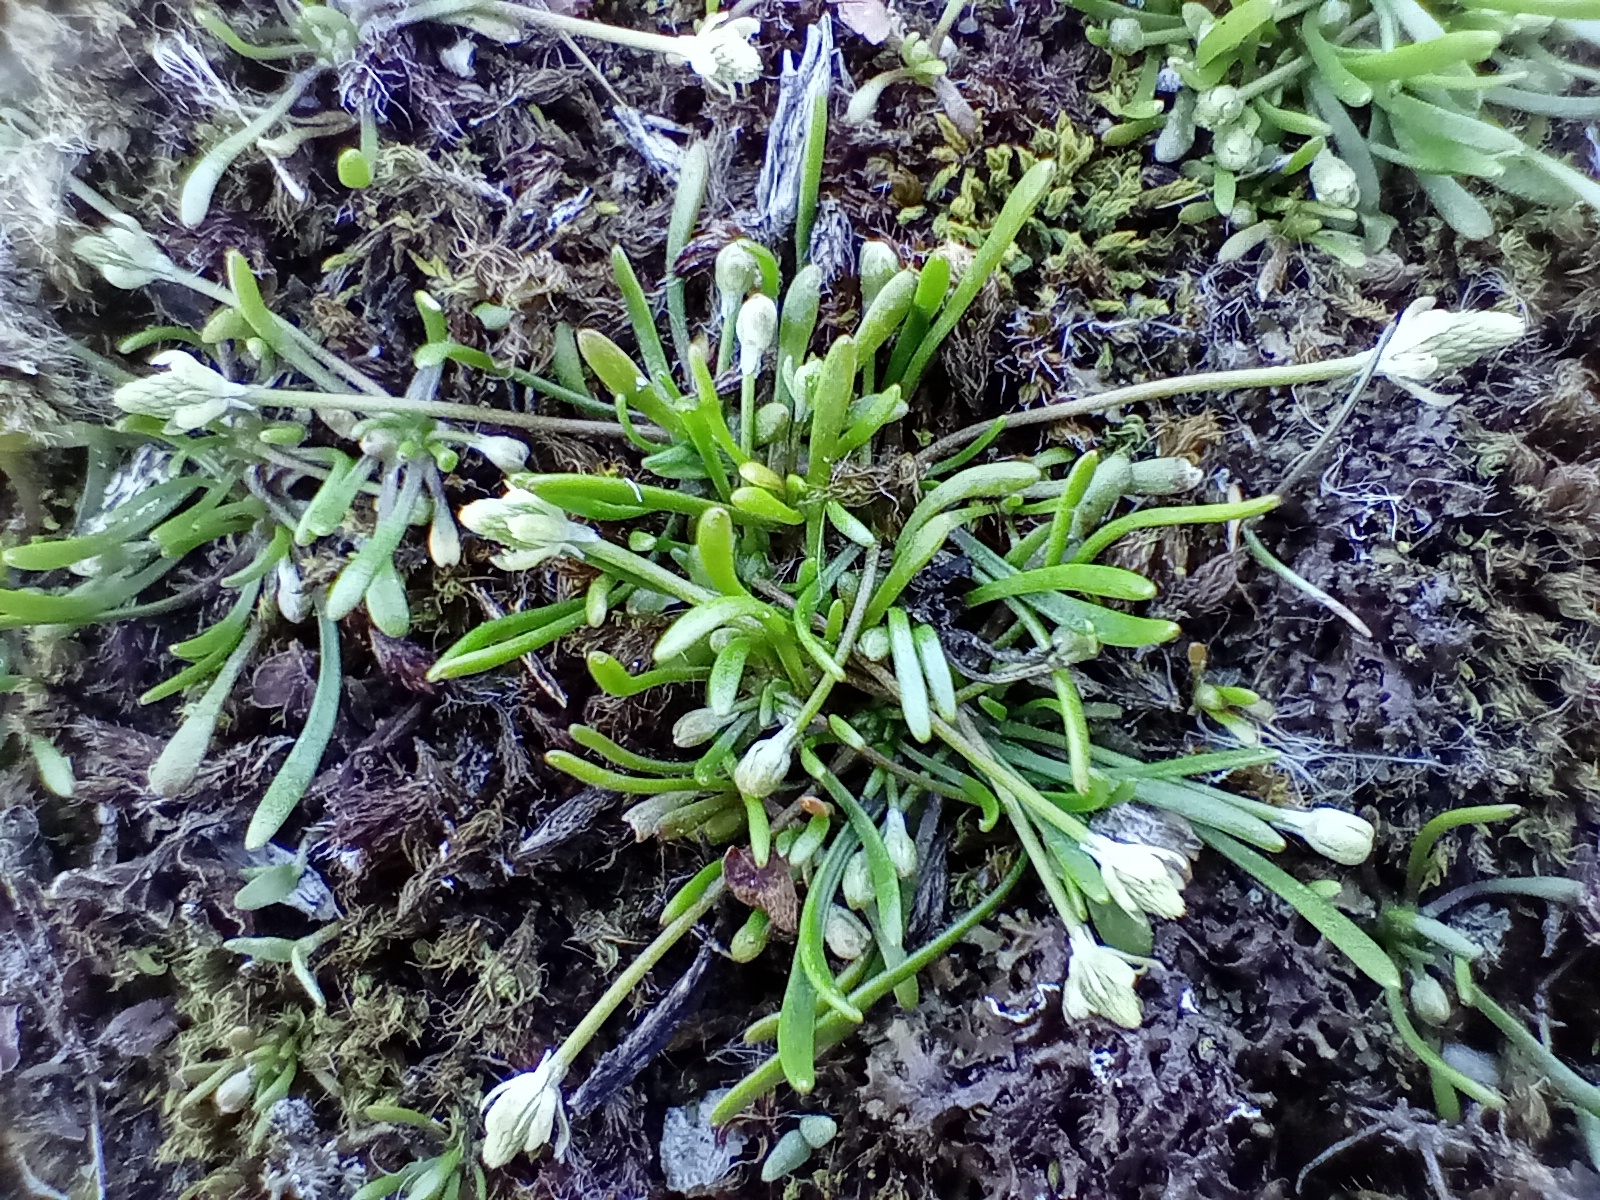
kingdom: Plantae
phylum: Tracheophyta
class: Magnoliopsida
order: Ranunculales
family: Ranunculaceae
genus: Myosurus
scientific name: Myosurus minimus
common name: Mousetail
